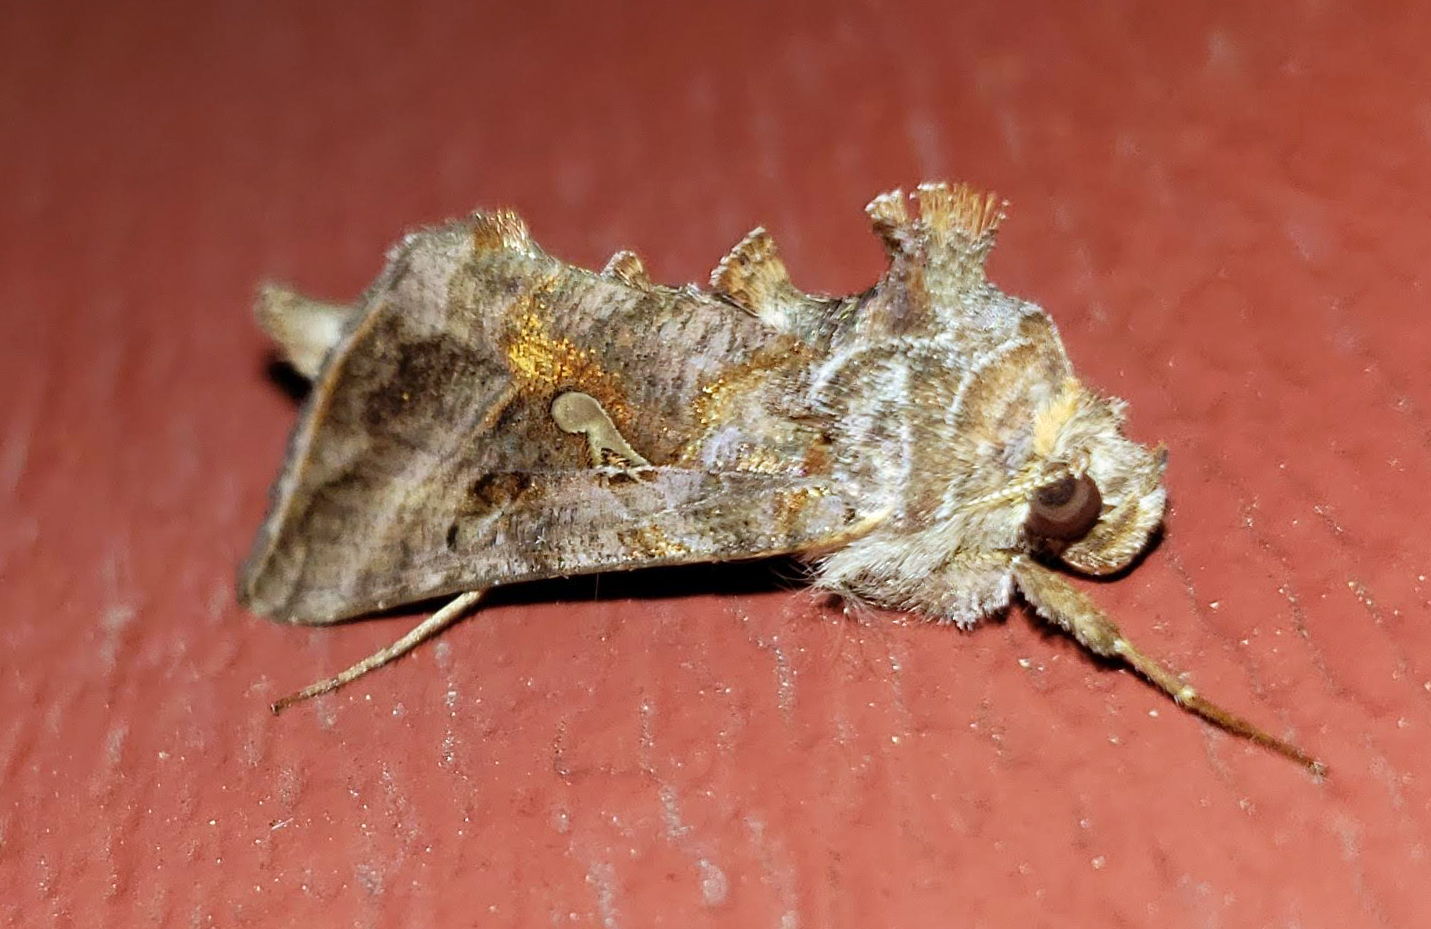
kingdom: Animalia
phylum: Arthropoda
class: Insecta
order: Lepidoptera
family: Noctuidae
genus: Autographa
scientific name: Autographa precationis
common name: Common looper moth
